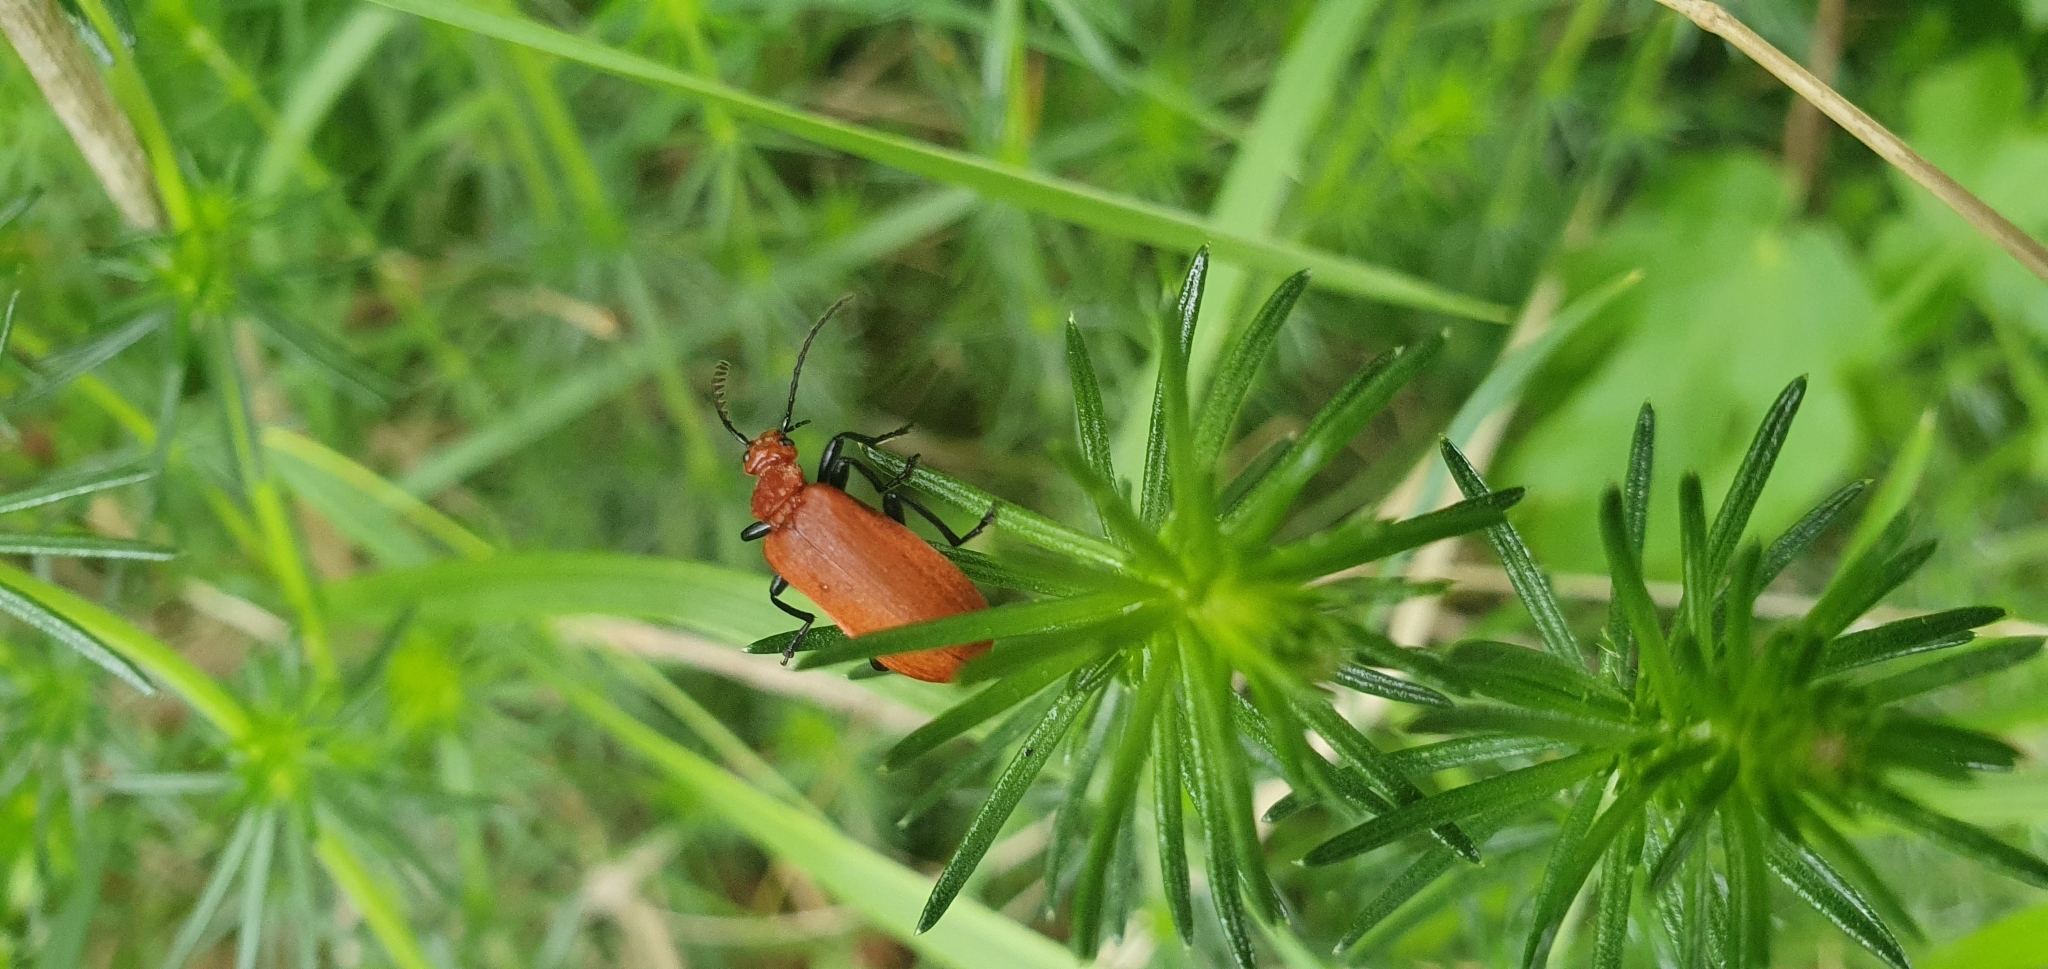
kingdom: Animalia
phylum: Arthropoda
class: Insecta
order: Coleoptera
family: Pyrochroidae
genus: Pyrochroa
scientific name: Pyrochroa serraticornis
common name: Red-headed cardinal beetle
